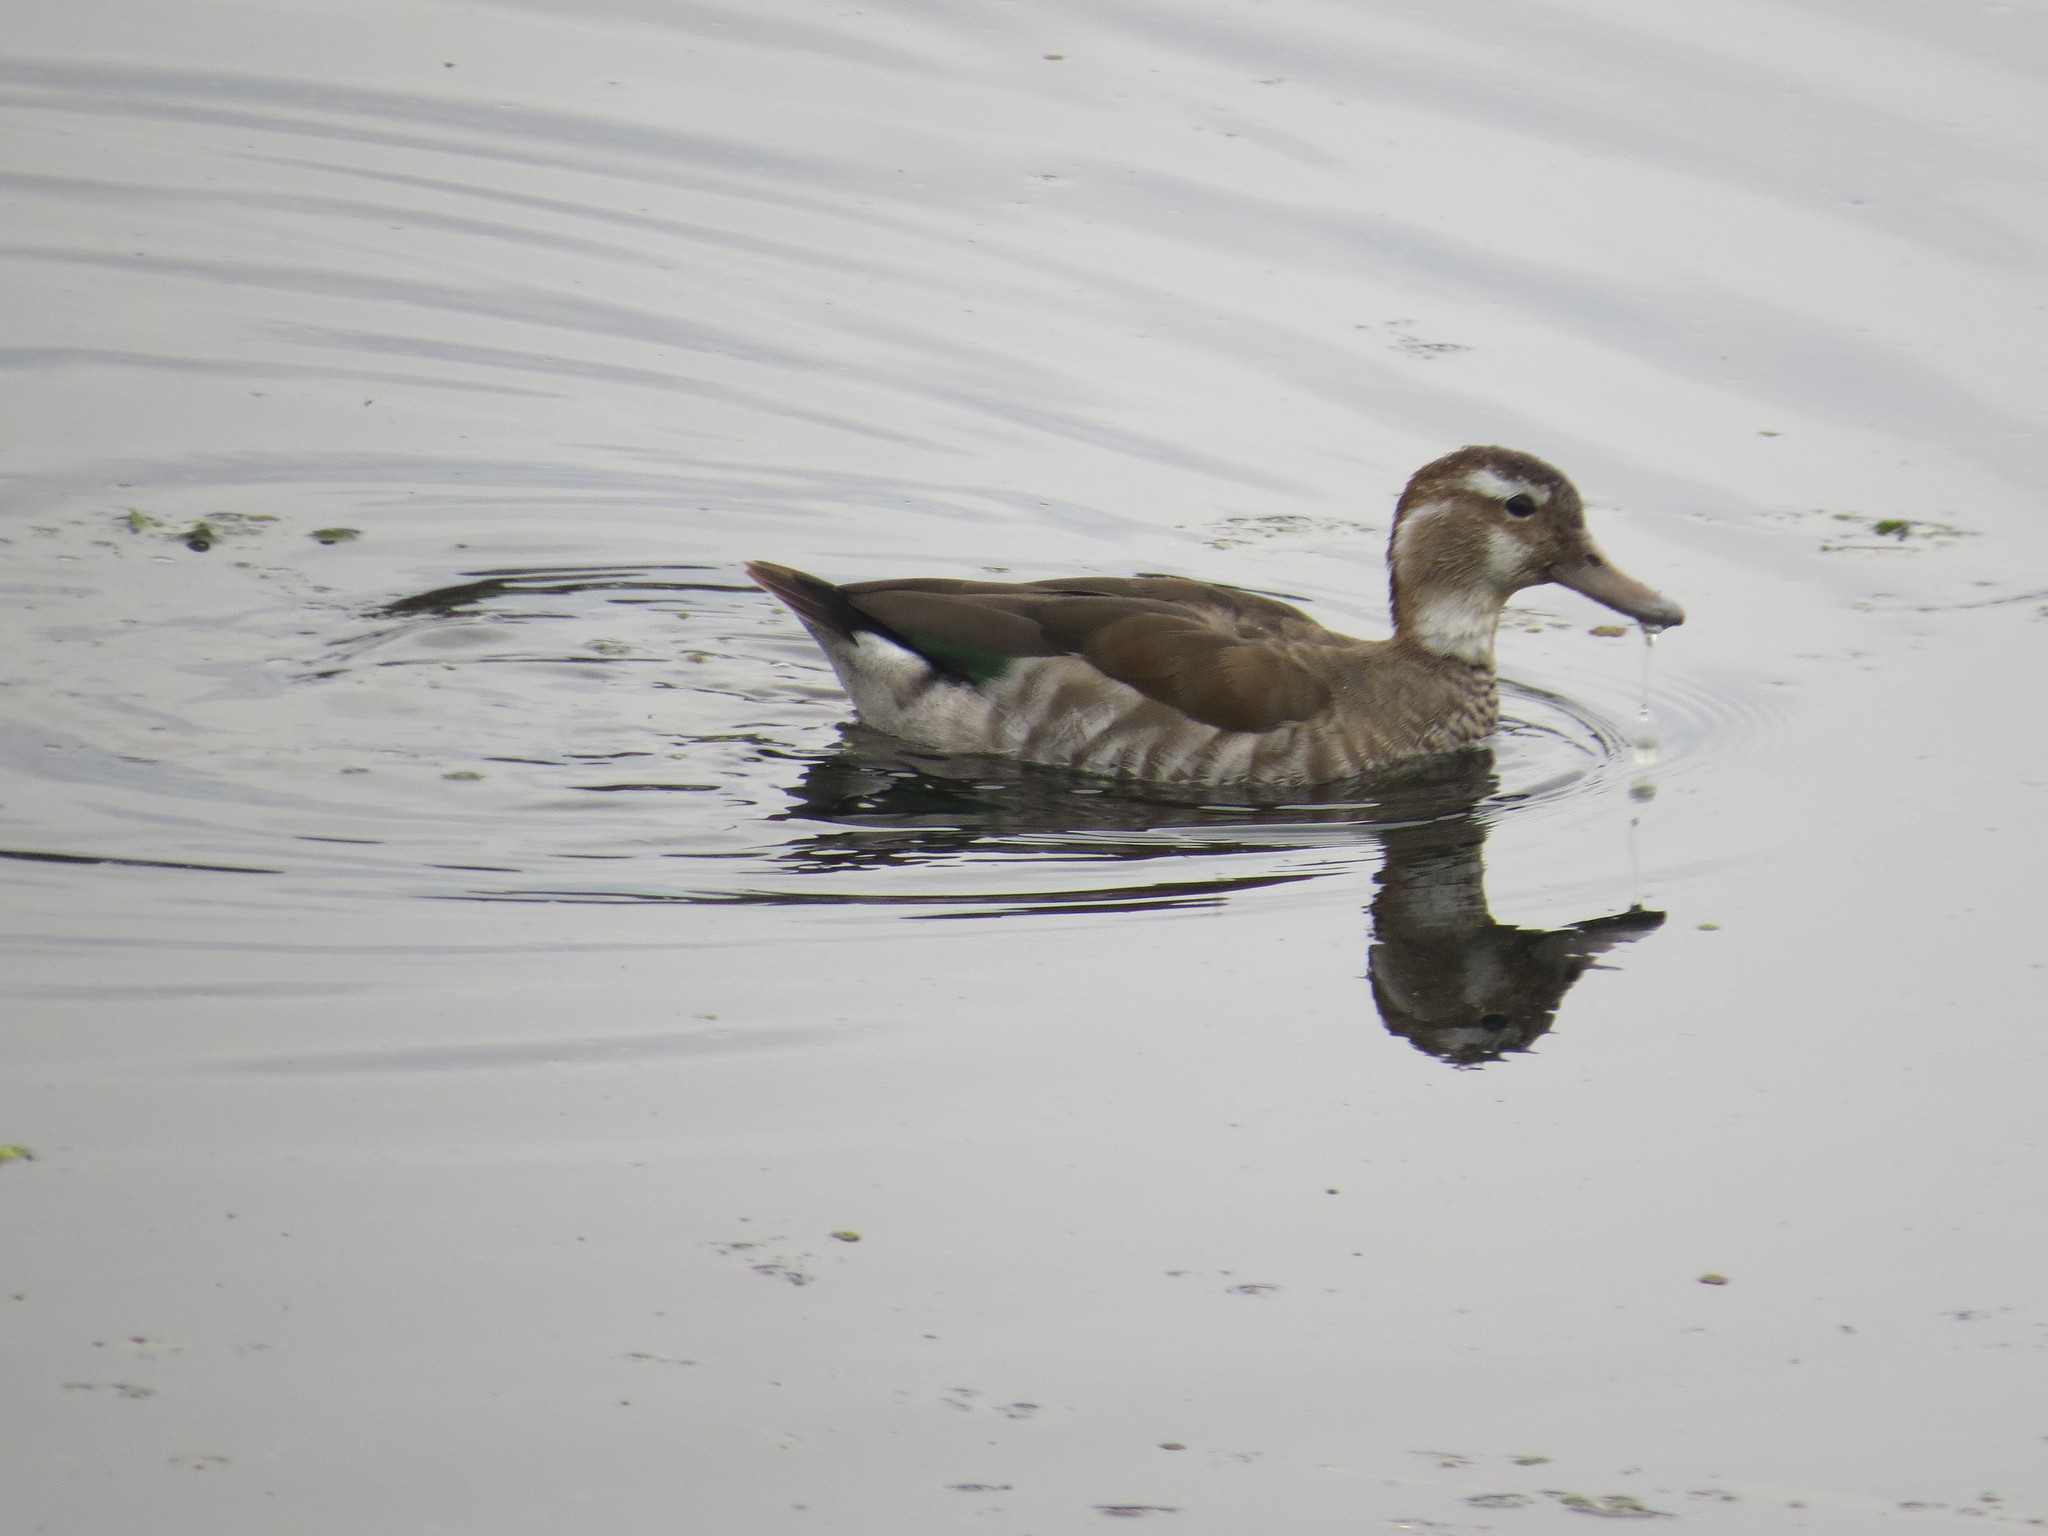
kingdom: Animalia
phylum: Chordata
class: Aves
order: Anseriformes
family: Anatidae
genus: Callonetta
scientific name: Callonetta leucophrys
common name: Ringed teal
